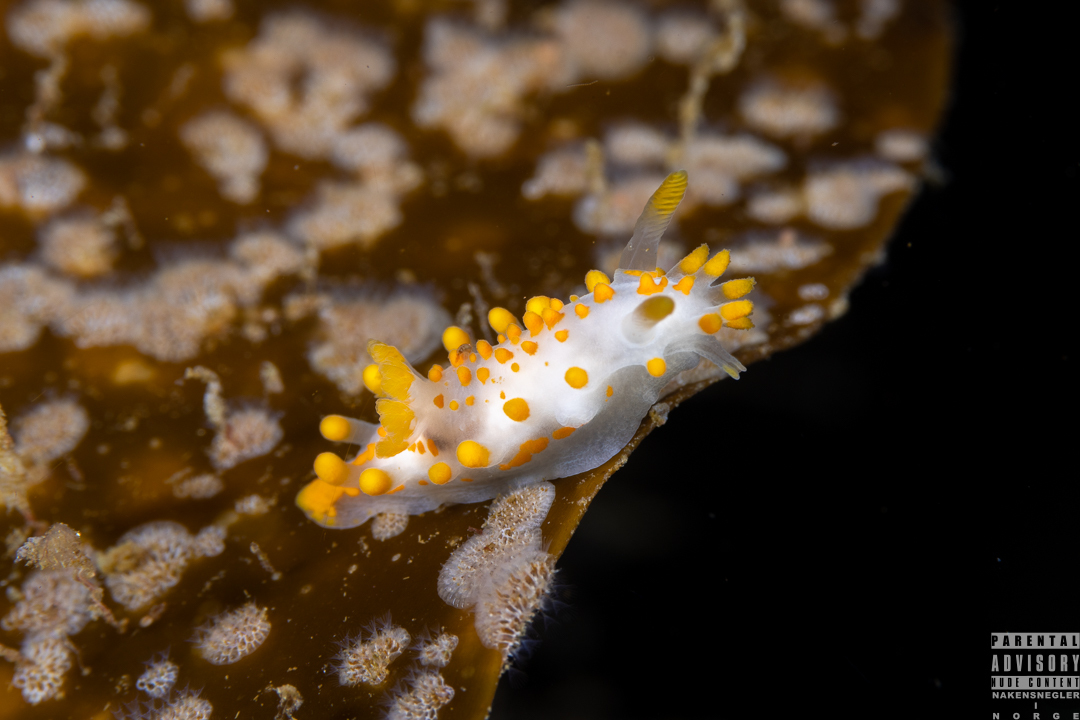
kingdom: Animalia
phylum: Mollusca
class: Gastropoda
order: Nudibranchia
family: Polyceridae
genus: Limacia
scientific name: Limacia clavigera
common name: Orange-clubbed sea slug
